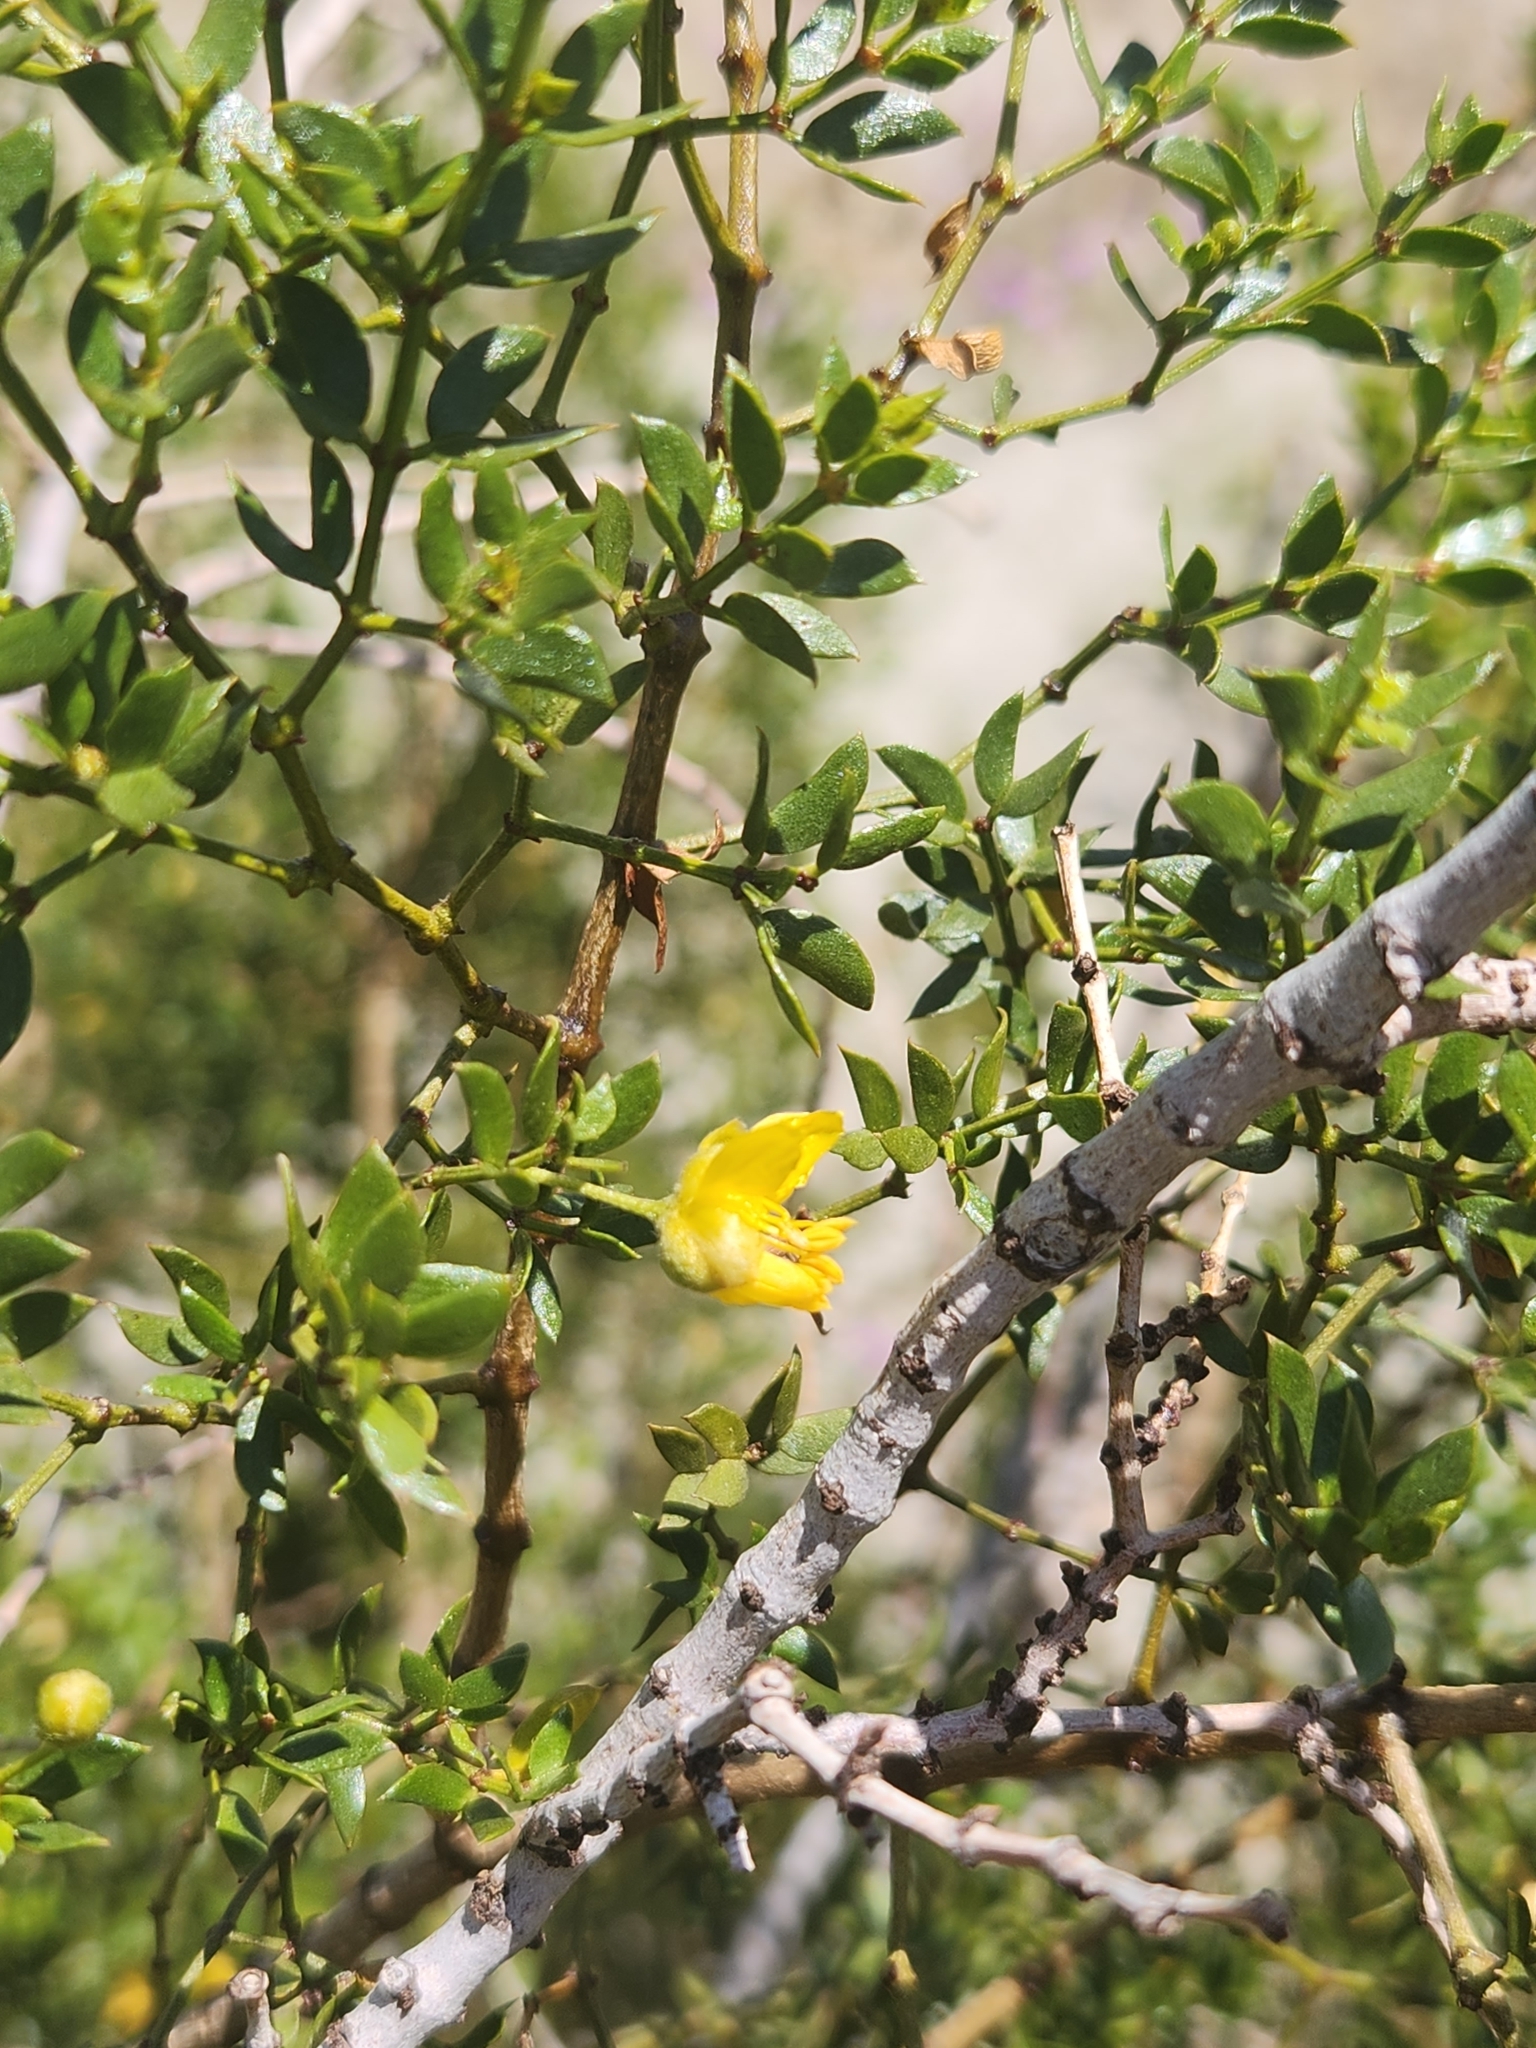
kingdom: Plantae
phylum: Tracheophyta
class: Magnoliopsida
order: Zygophyllales
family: Zygophyllaceae
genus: Larrea
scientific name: Larrea tridentata
